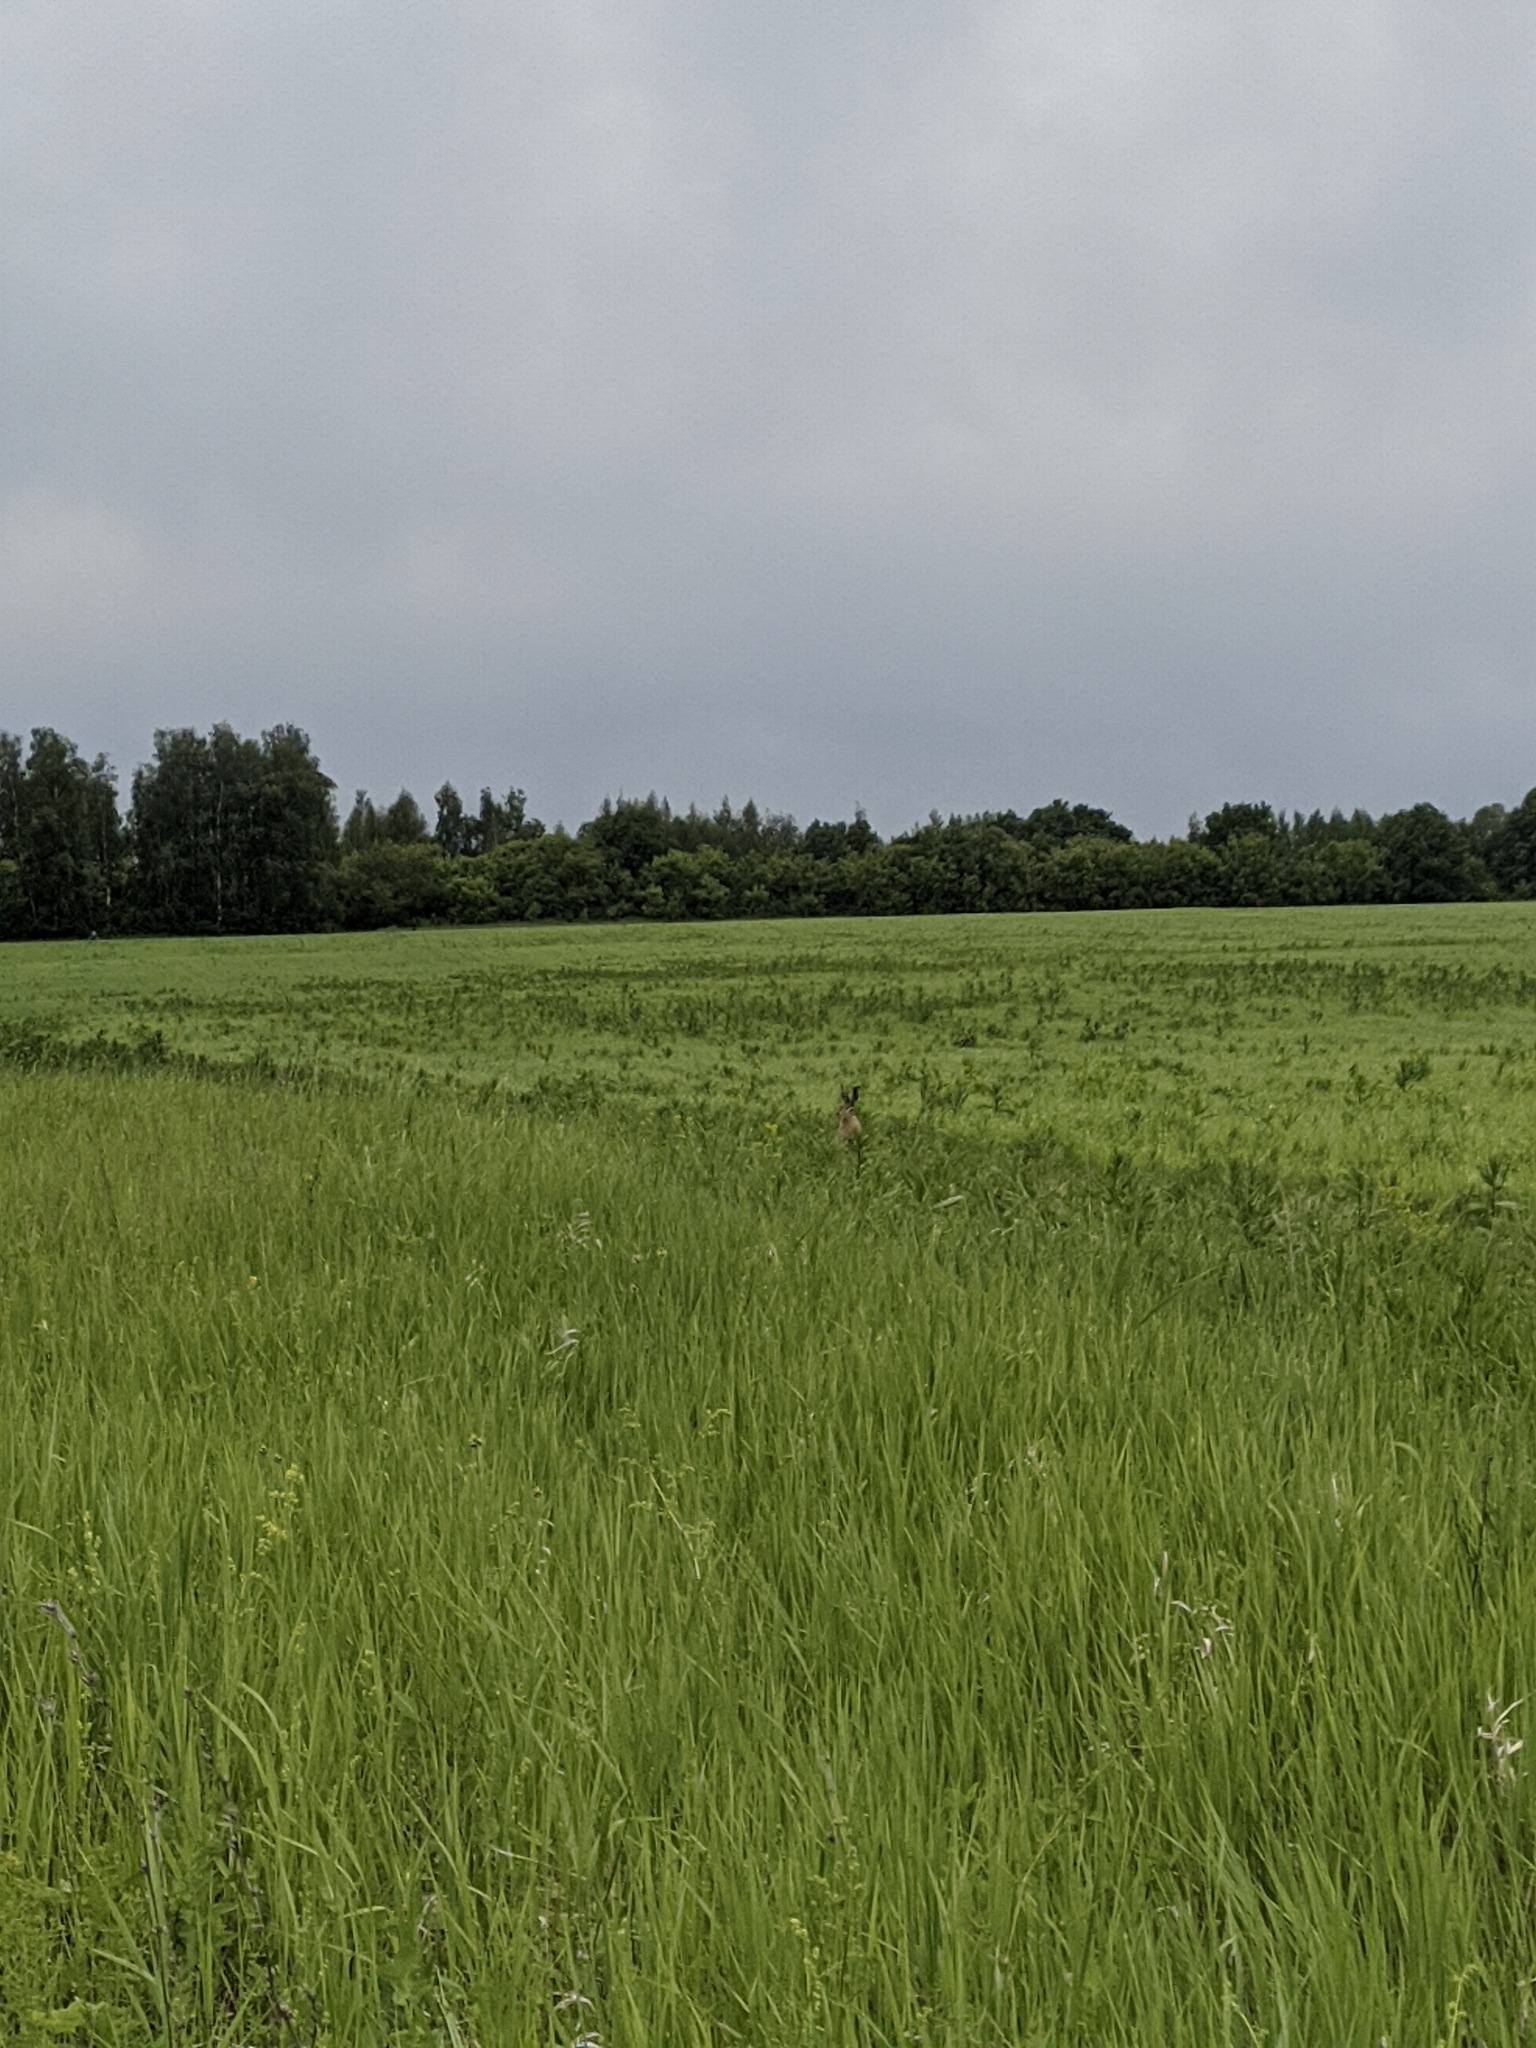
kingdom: Animalia
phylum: Chordata
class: Mammalia
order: Lagomorpha
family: Leporidae
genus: Lepus
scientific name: Lepus europaeus
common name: European hare
